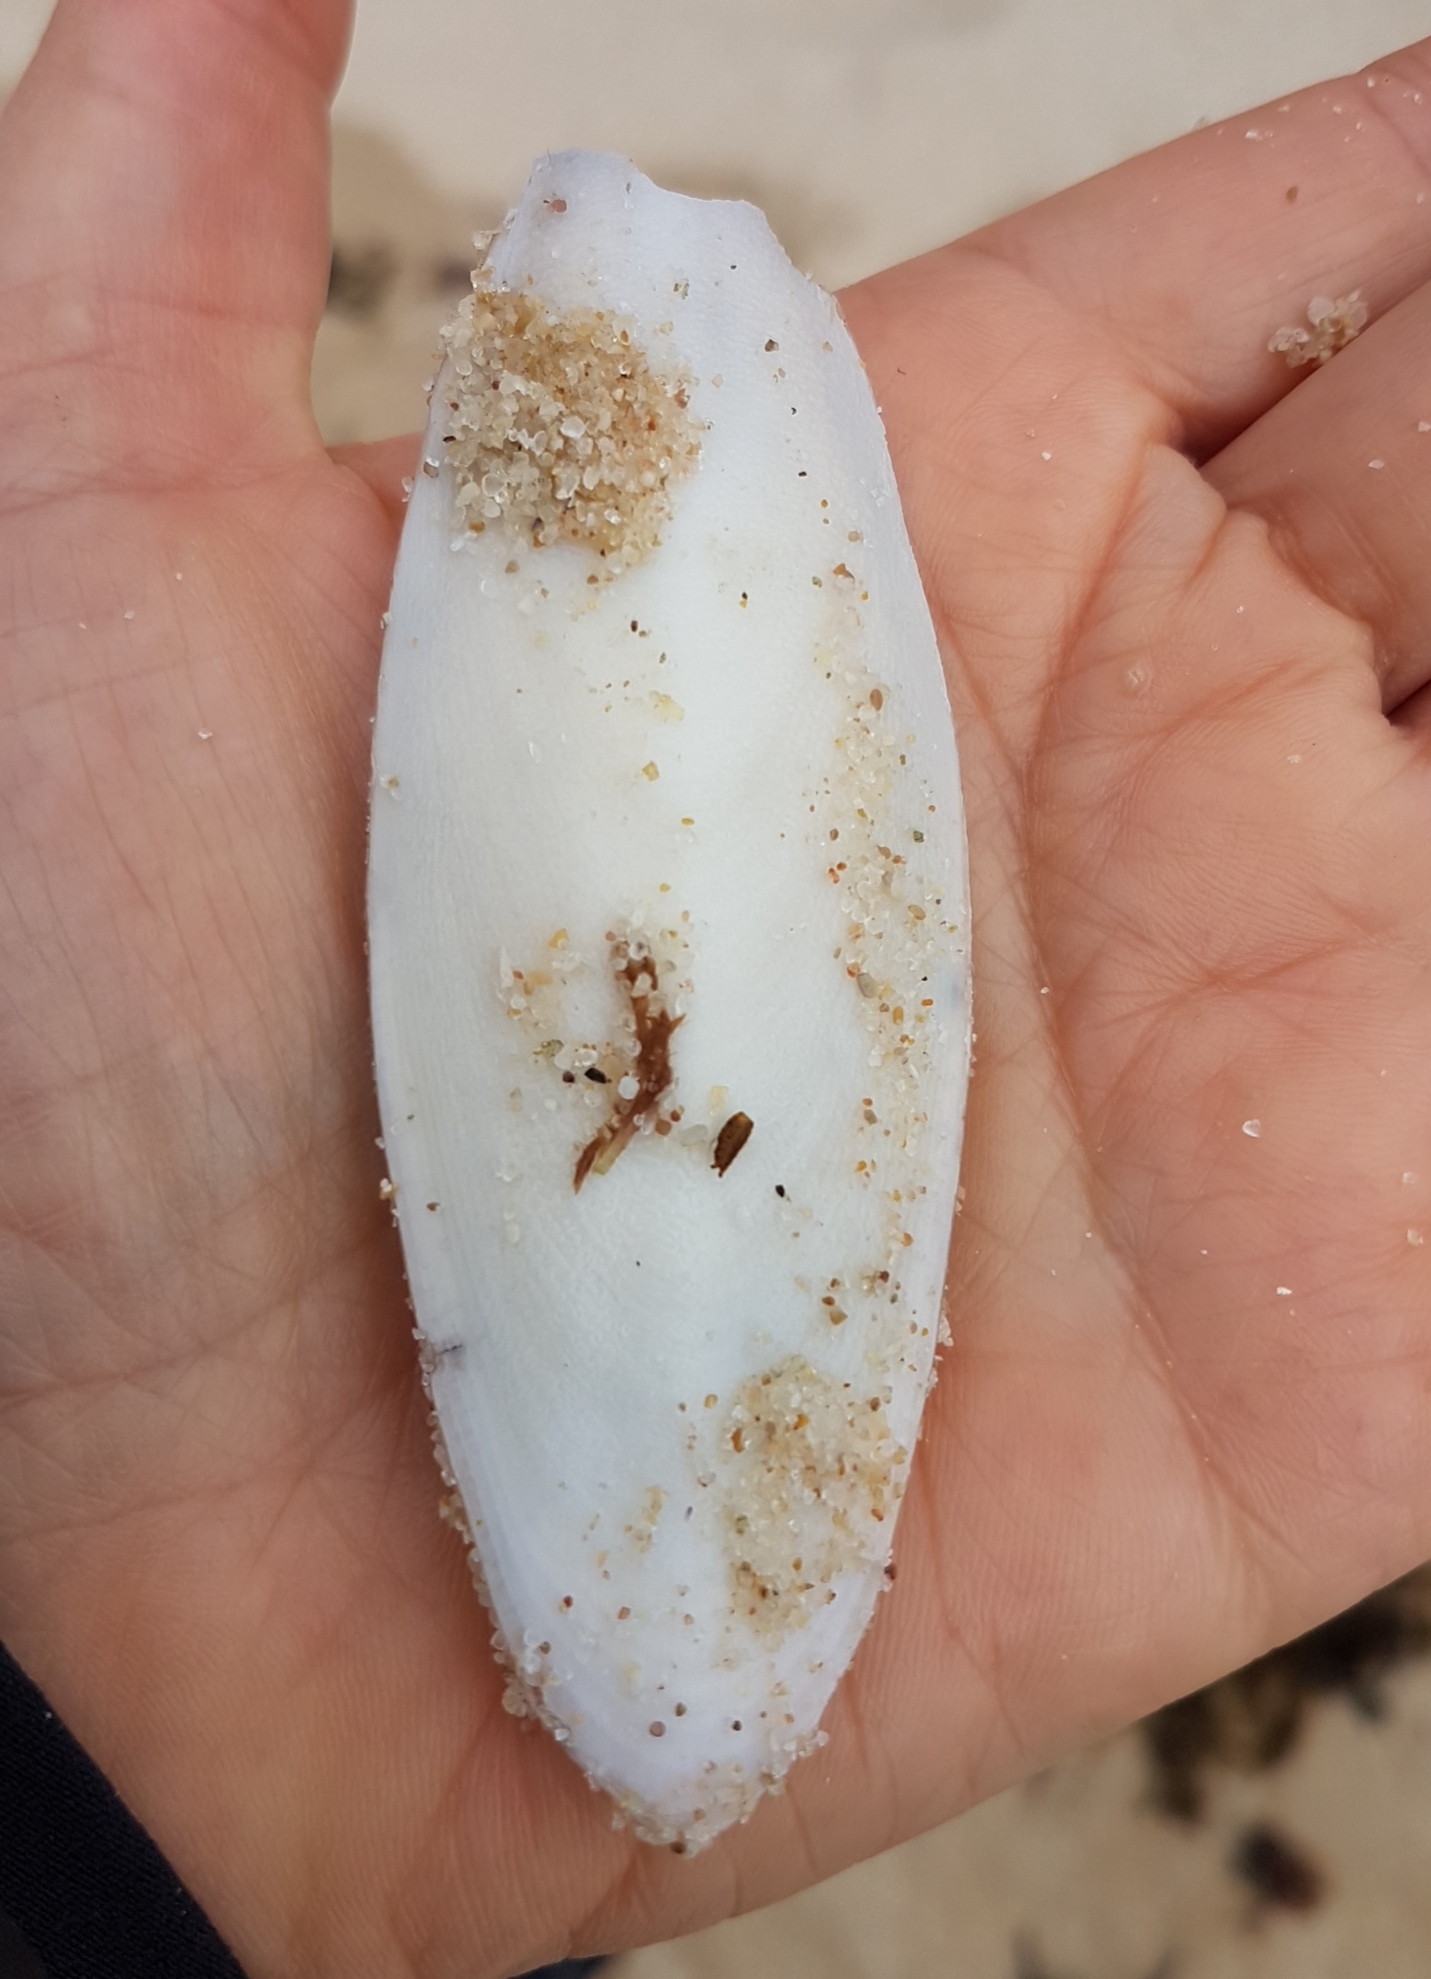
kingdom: Animalia
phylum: Mollusca
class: Cephalopoda
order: Sepiida
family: Sepiidae
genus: Sepia
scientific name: Sepia officinalis
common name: Common cuttlefish
